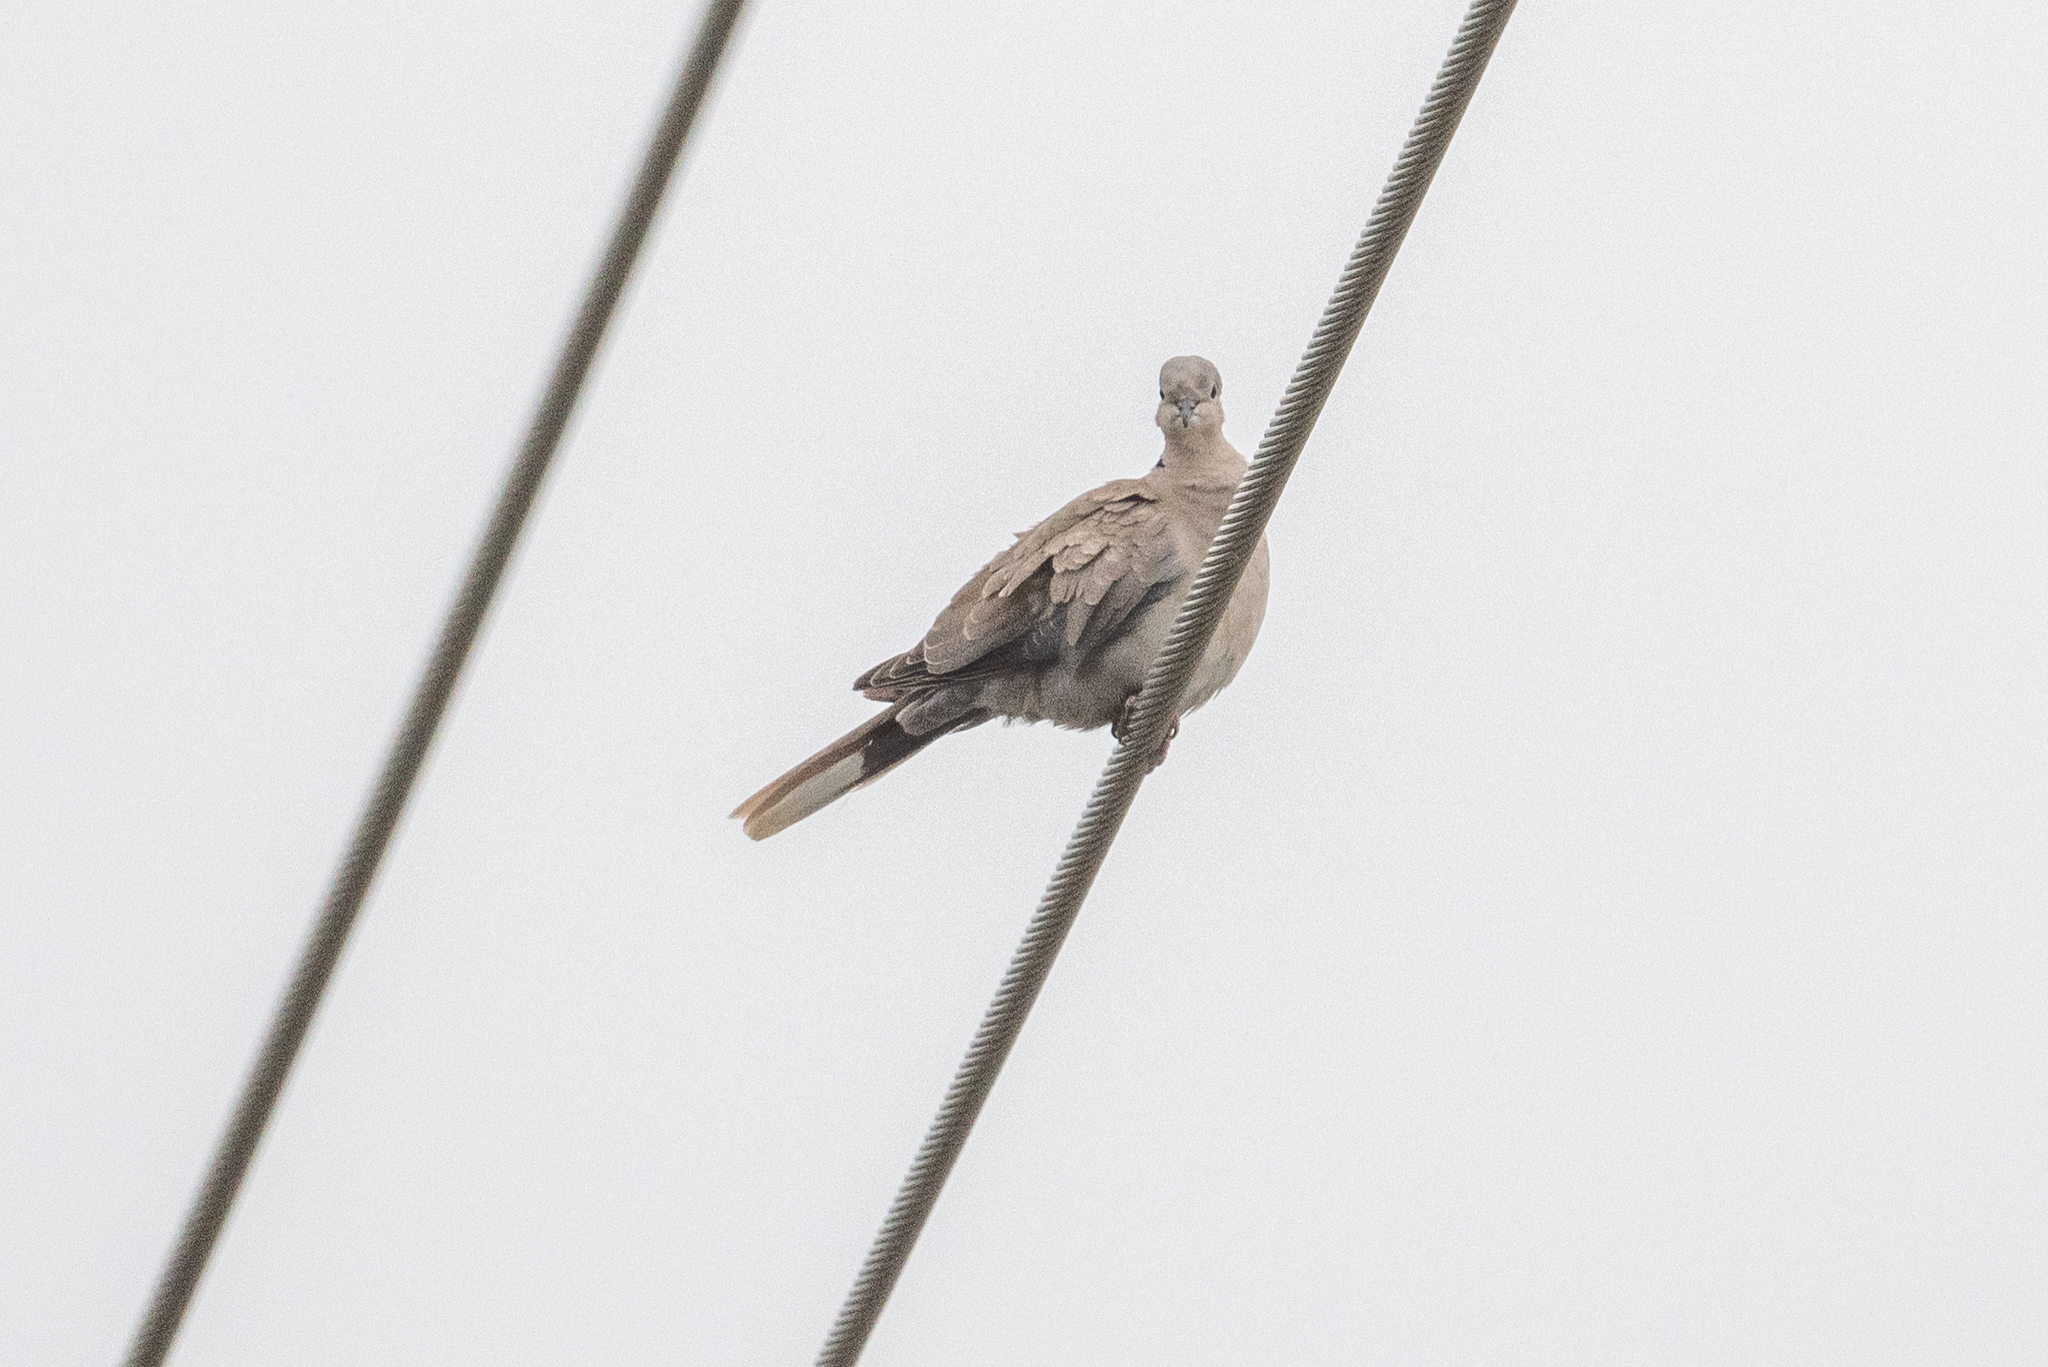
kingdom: Animalia
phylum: Chordata
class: Aves
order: Columbiformes
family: Columbidae
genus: Streptopelia
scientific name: Streptopelia decaocto
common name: Eurasian collared dove
